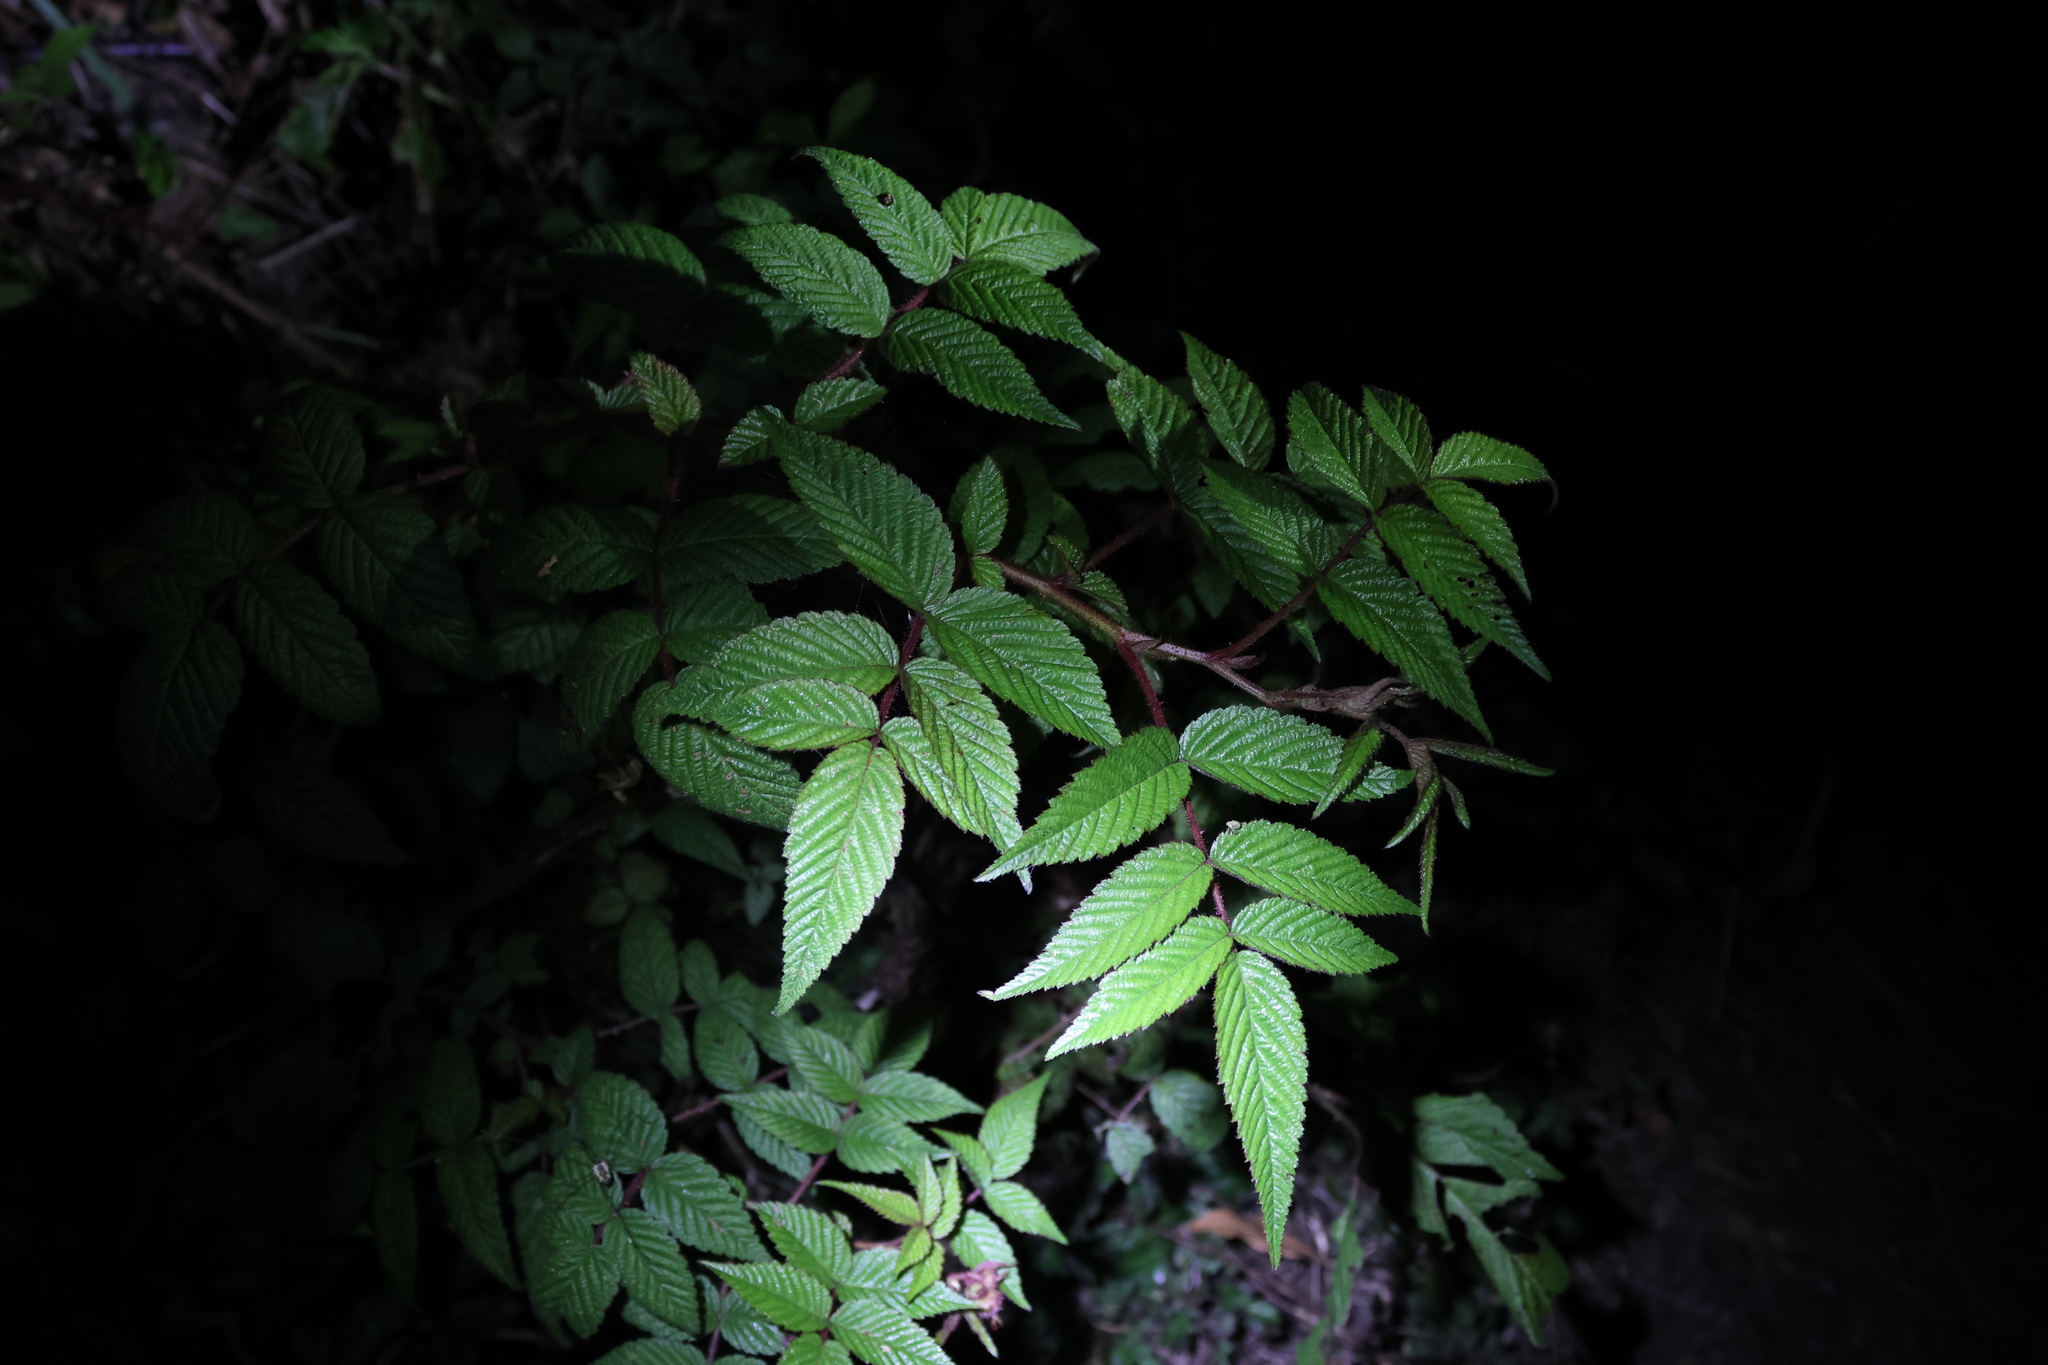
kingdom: Plantae
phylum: Tracheophyta
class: Magnoliopsida
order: Rosales
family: Rosaceae
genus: Rubus
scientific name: Rubus croceacanthus
